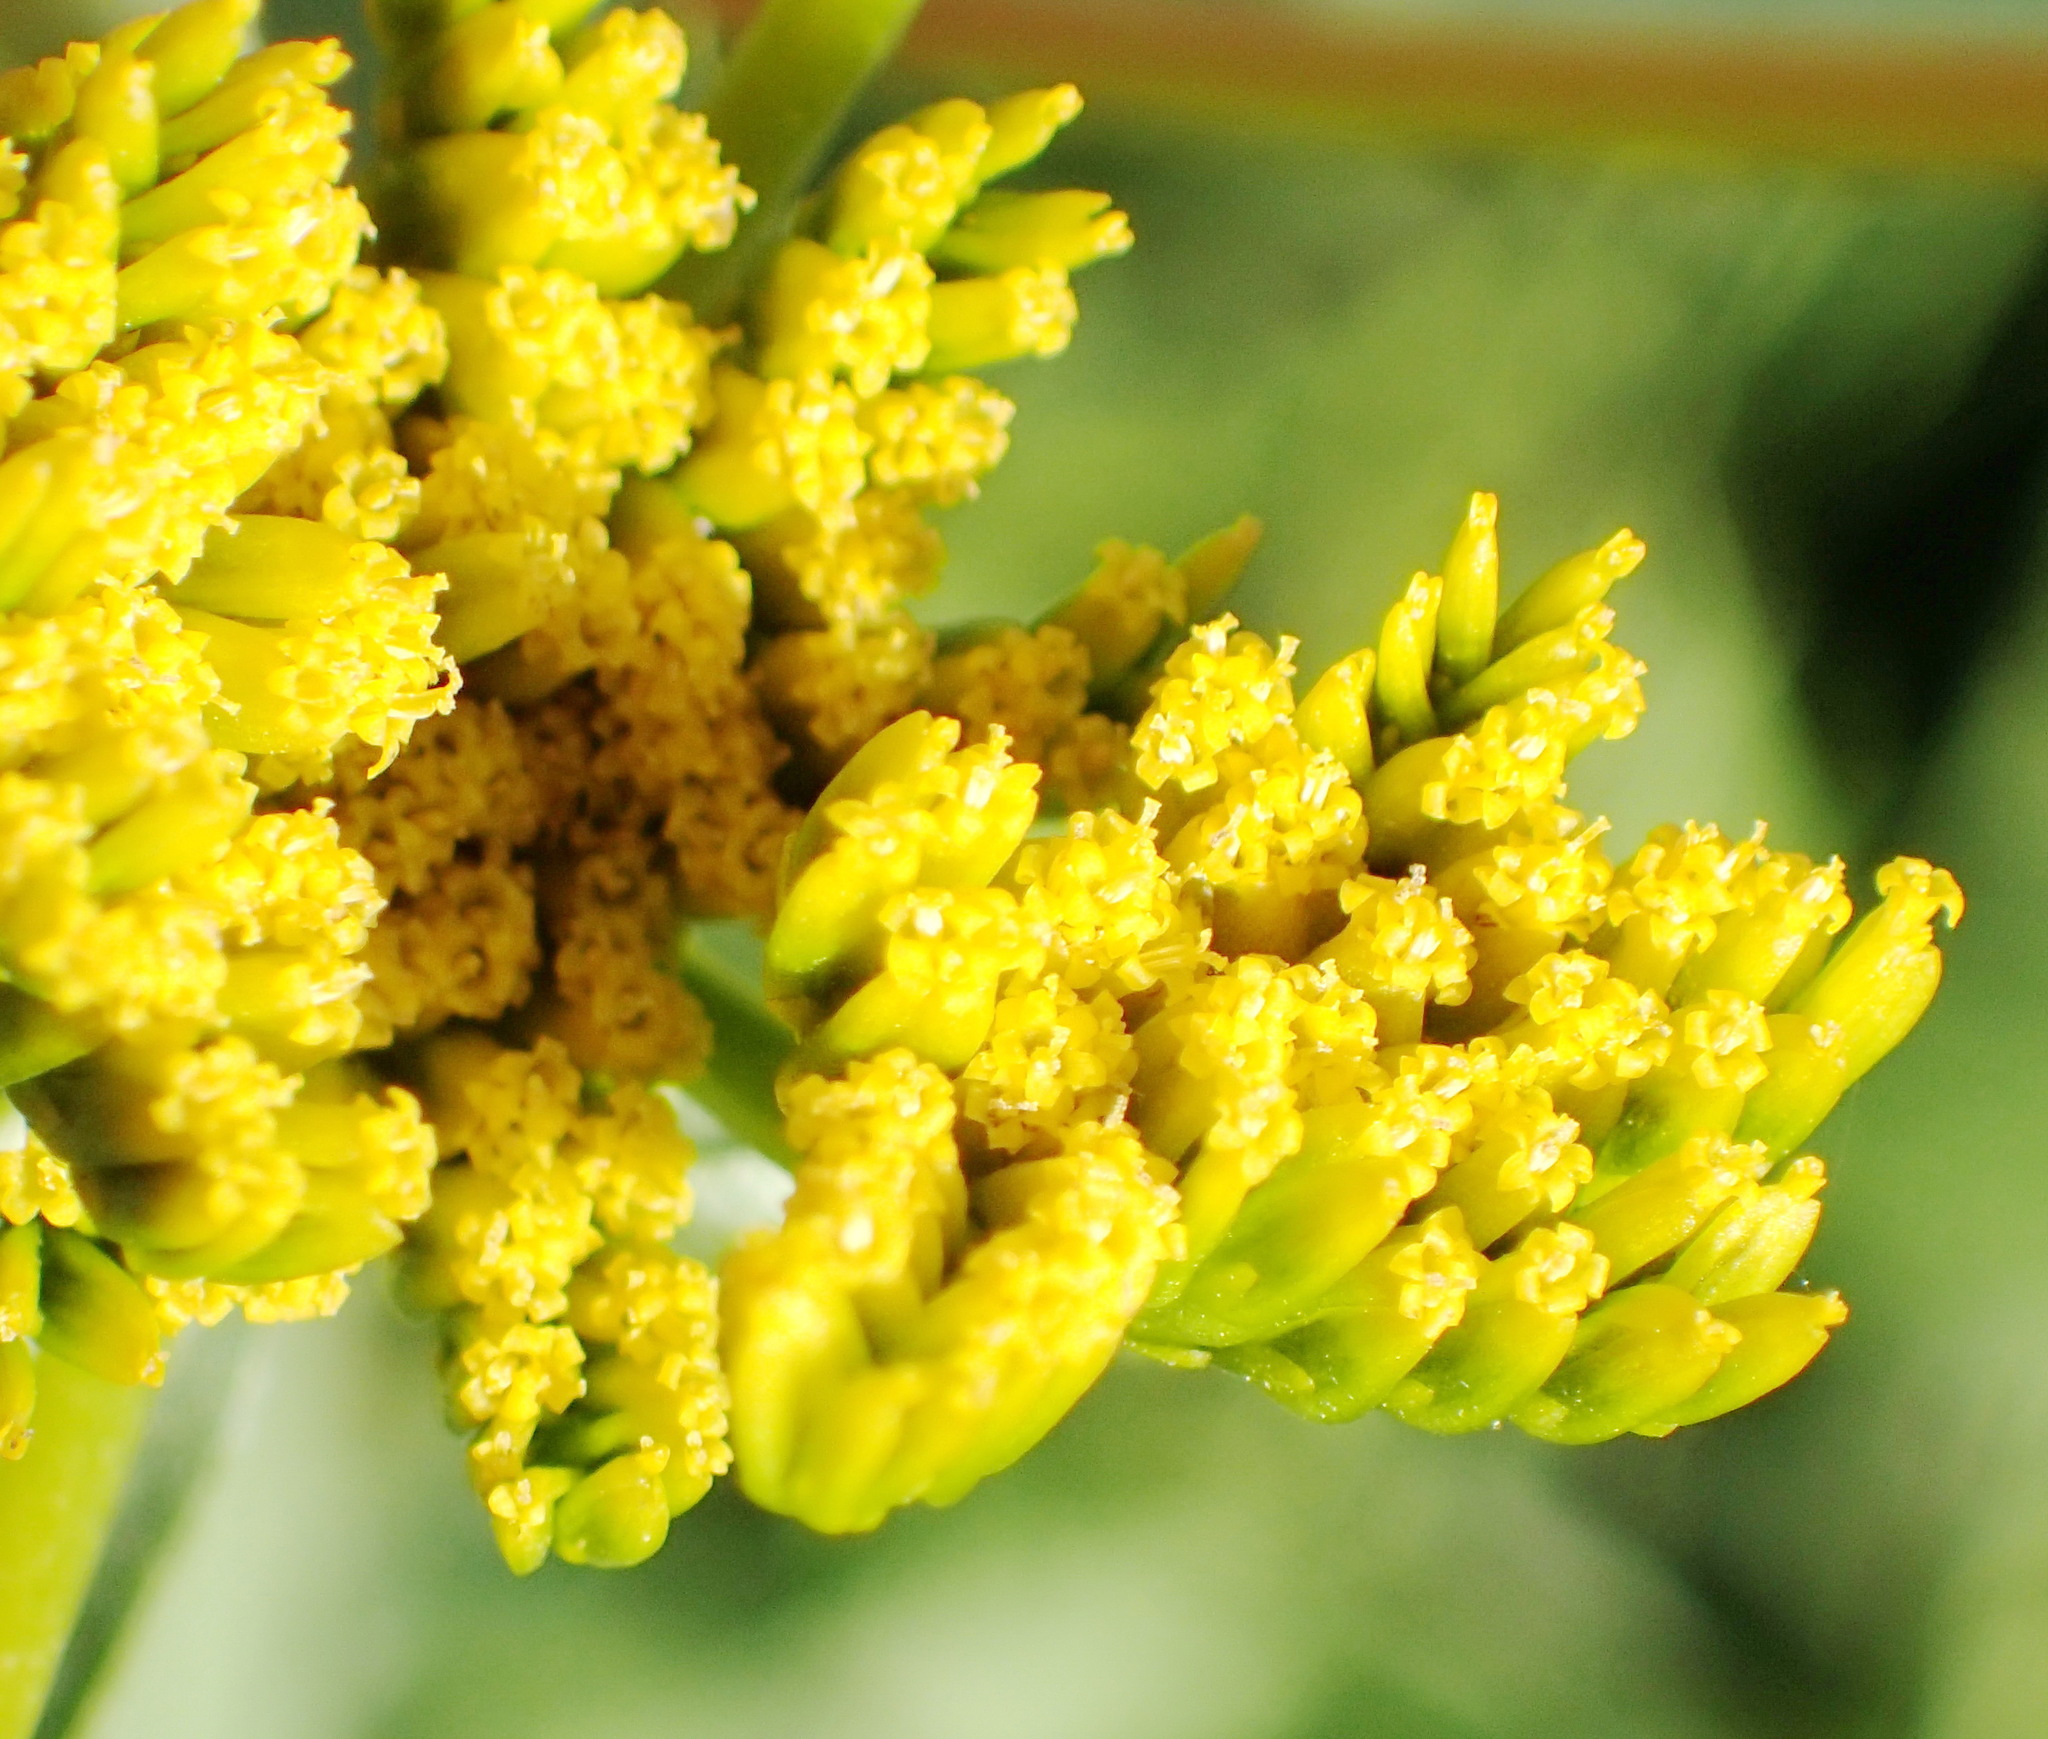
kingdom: Plantae
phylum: Tracheophyta
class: Magnoliopsida
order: Asterales
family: Asteraceae
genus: Flaveria
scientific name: Flaveria bidentis
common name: Coastal plain yellowtops
